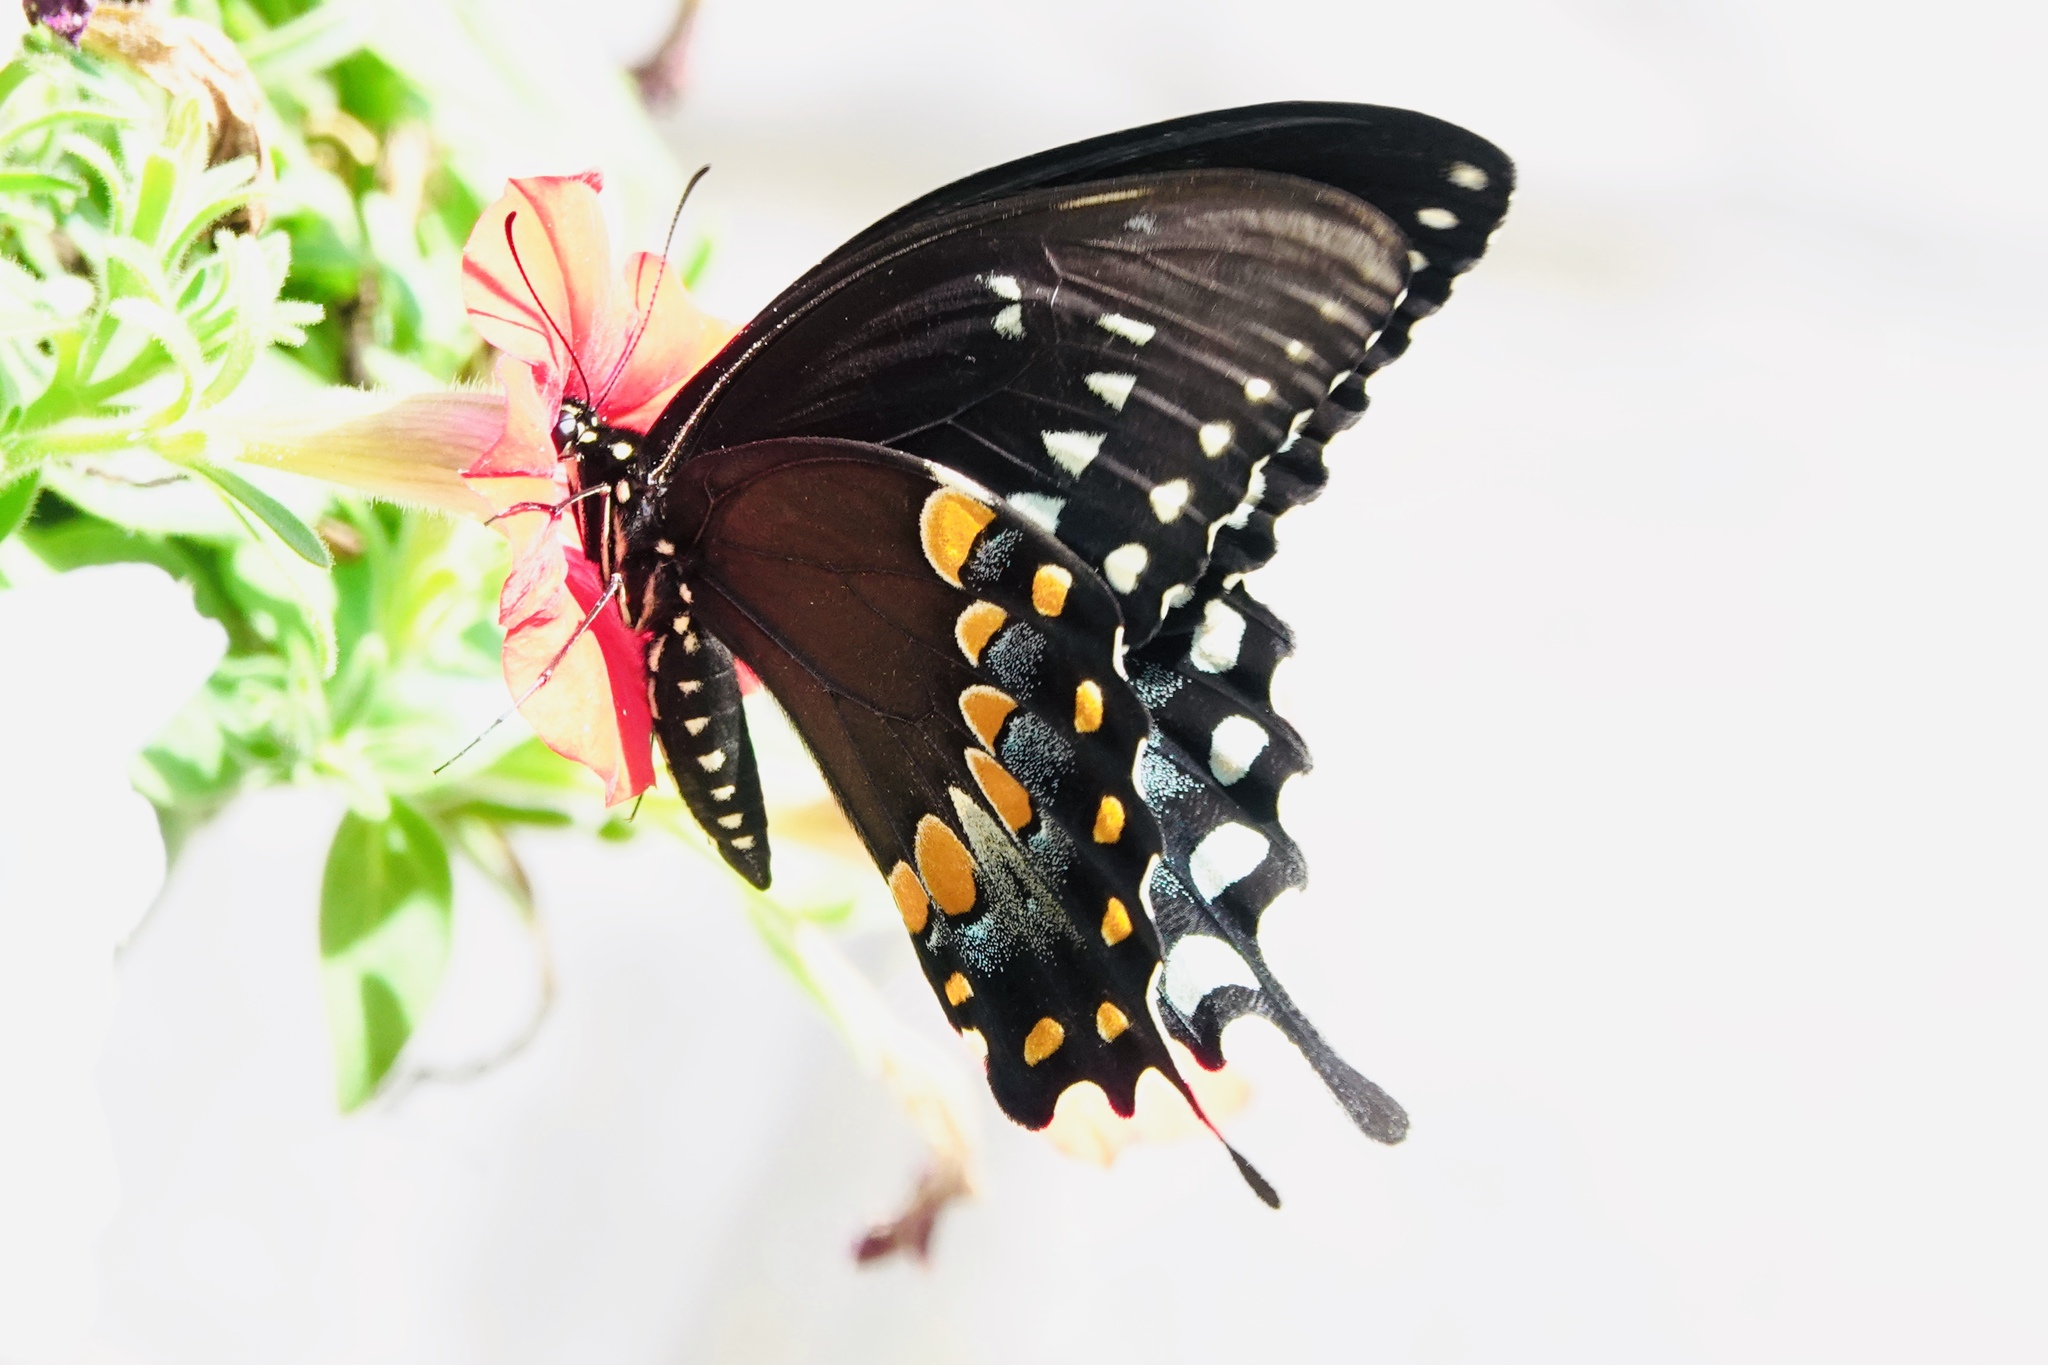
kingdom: Animalia
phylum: Arthropoda
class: Insecta
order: Lepidoptera
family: Papilionidae
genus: Papilio
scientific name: Papilio troilus
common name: Spicebush swallowtail
